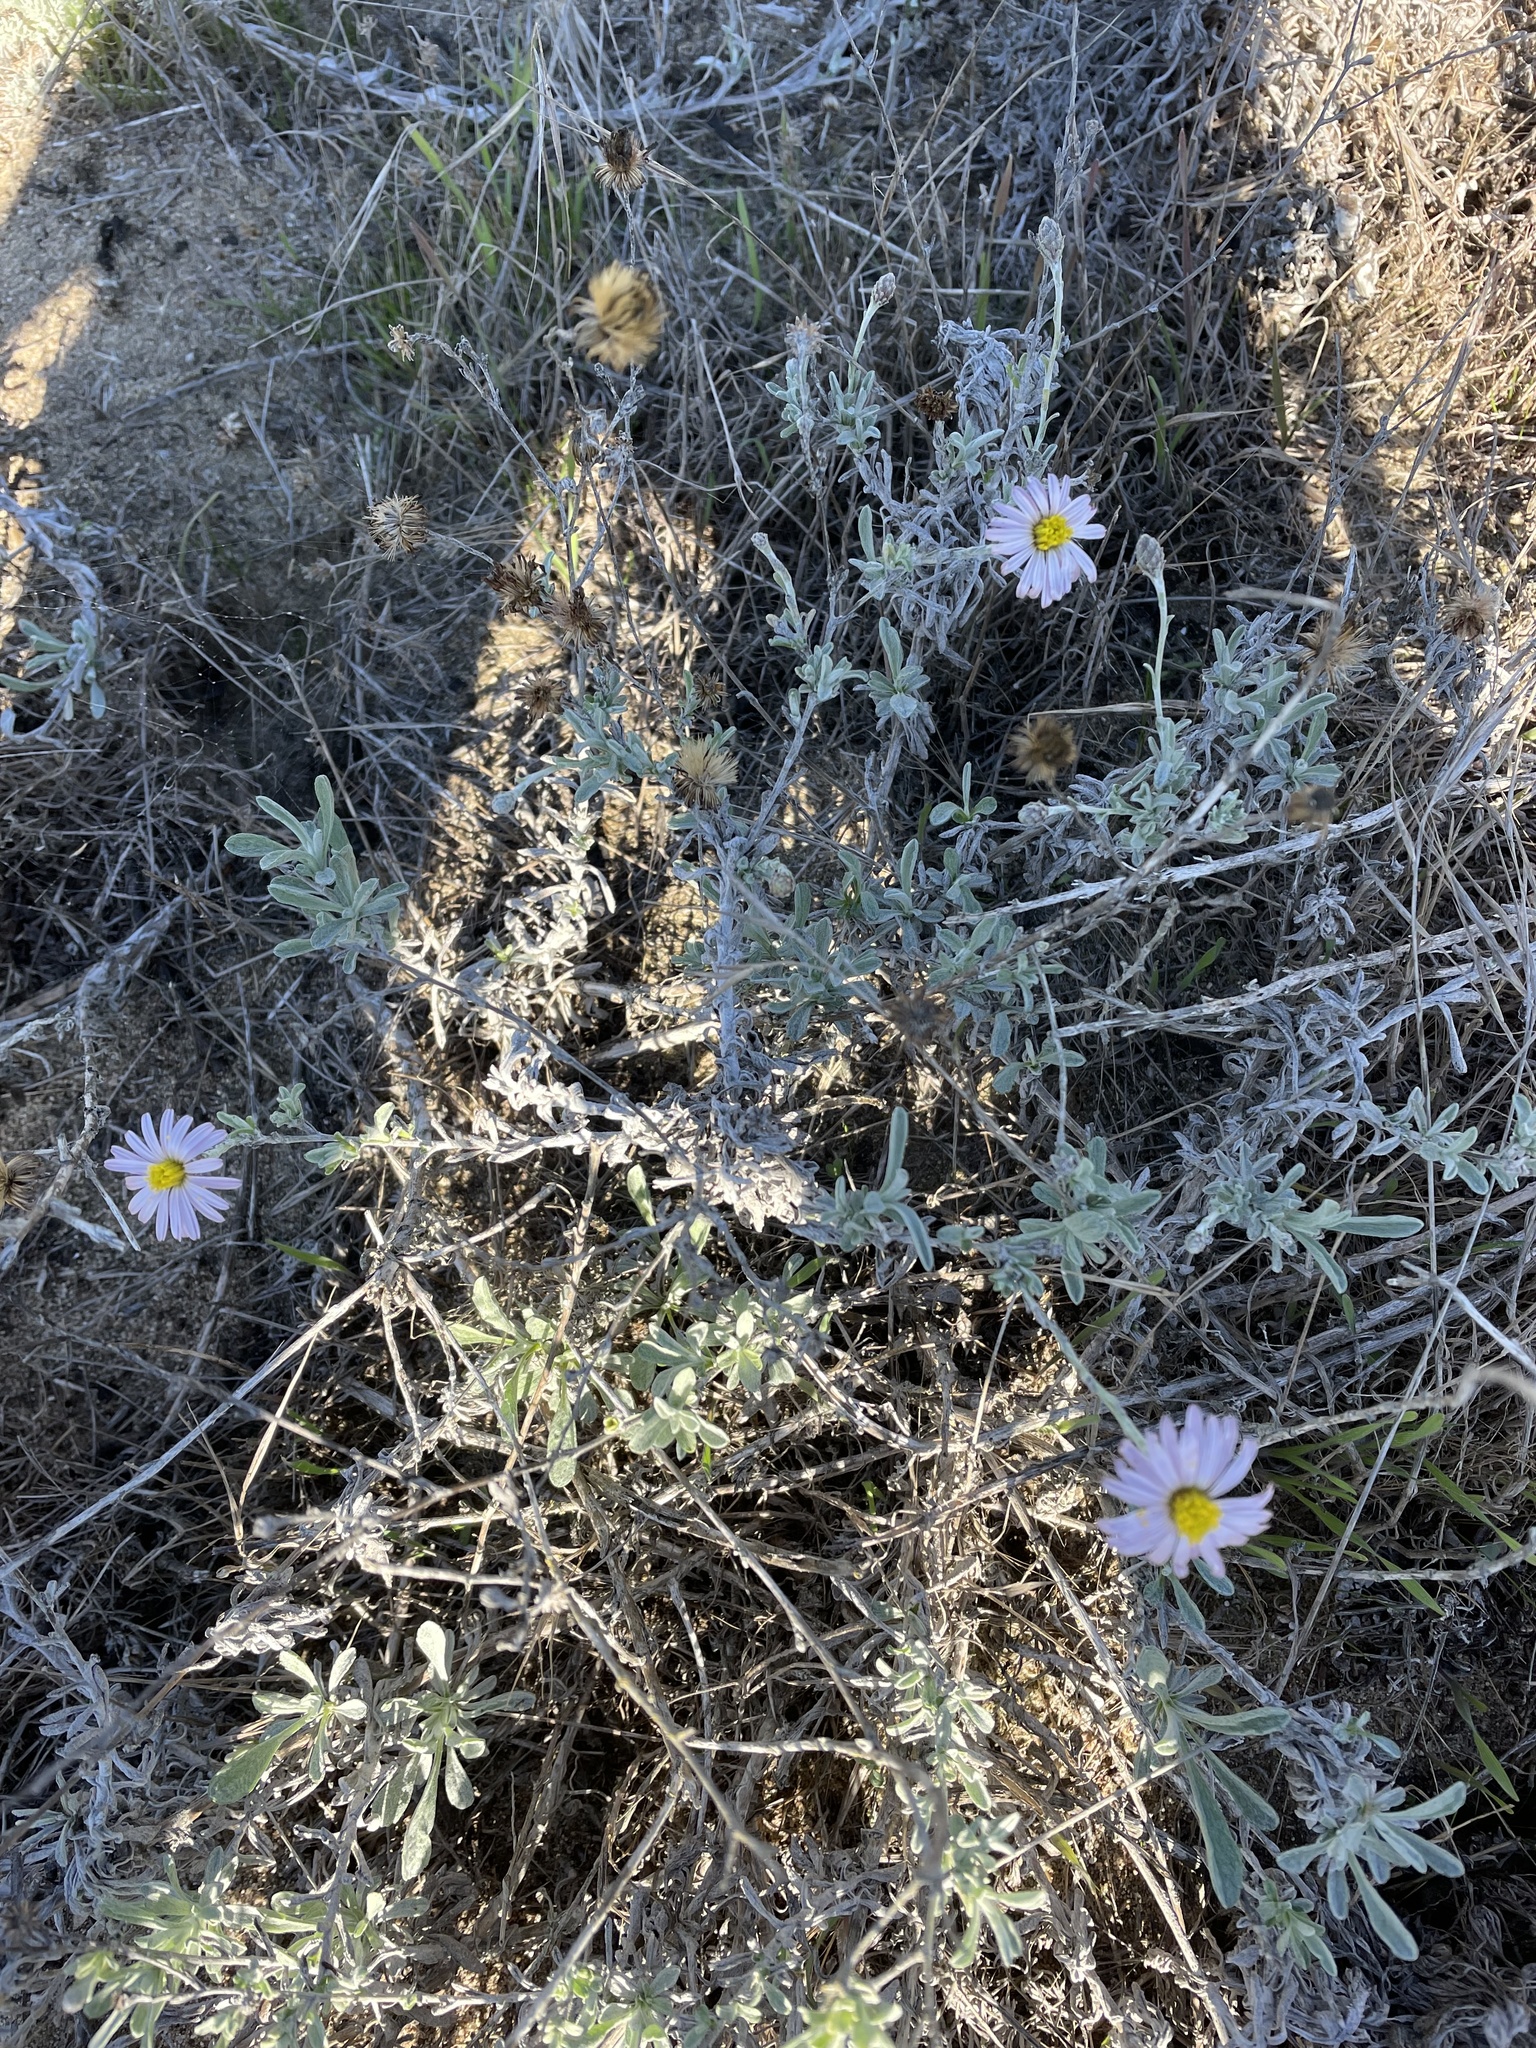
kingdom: Plantae
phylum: Tracheophyta
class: Magnoliopsida
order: Asterales
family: Asteraceae
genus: Corethrogyne
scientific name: Corethrogyne filaginifolia
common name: Sand-aster
